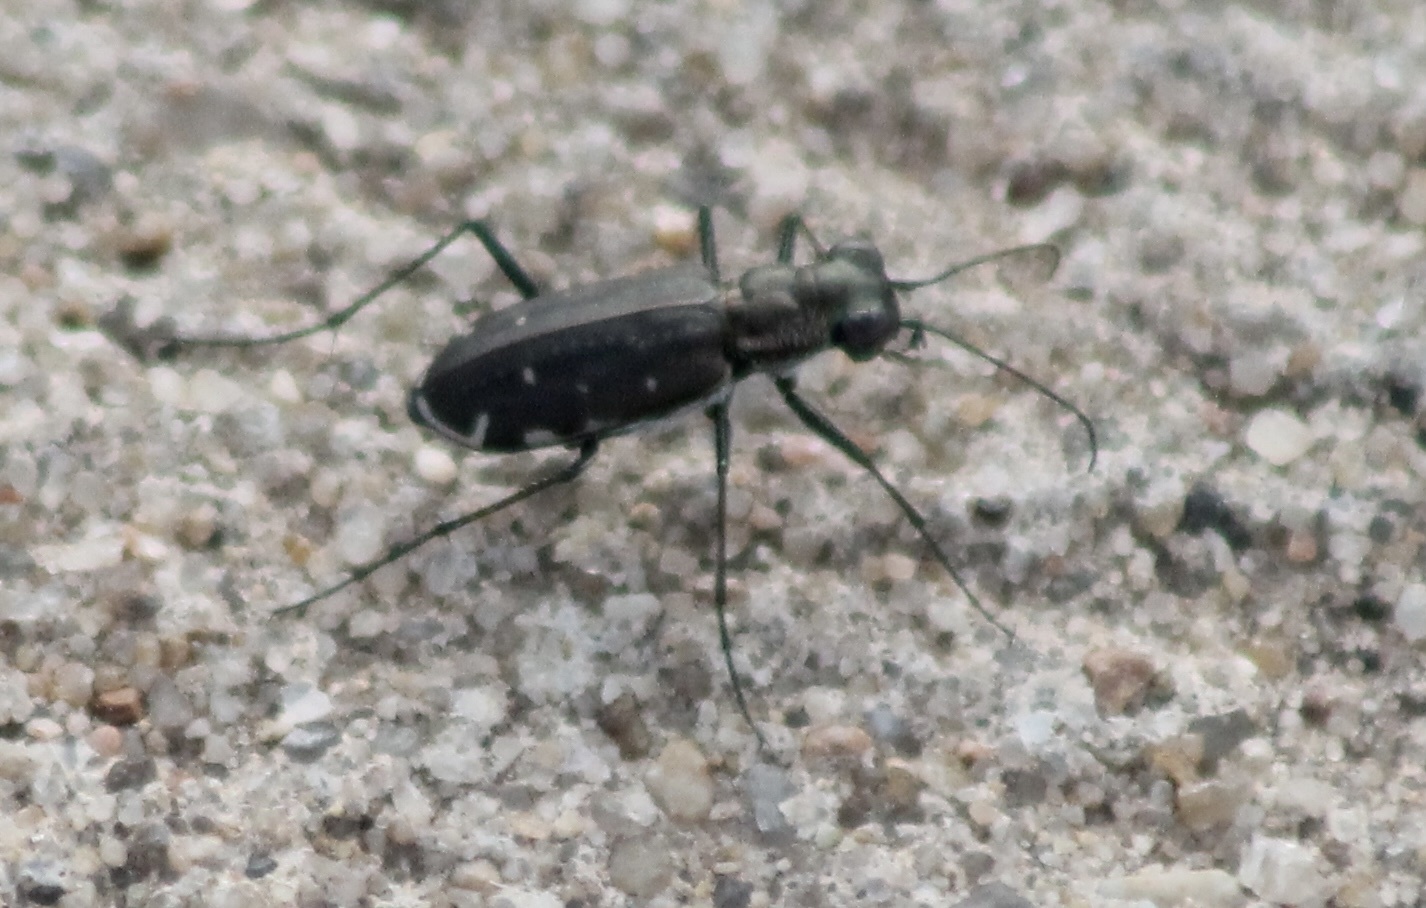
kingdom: Animalia
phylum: Arthropoda
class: Insecta
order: Coleoptera
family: Carabidae
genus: Cicindela
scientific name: Cicindela punctulata
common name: Punctured tiger beetle
